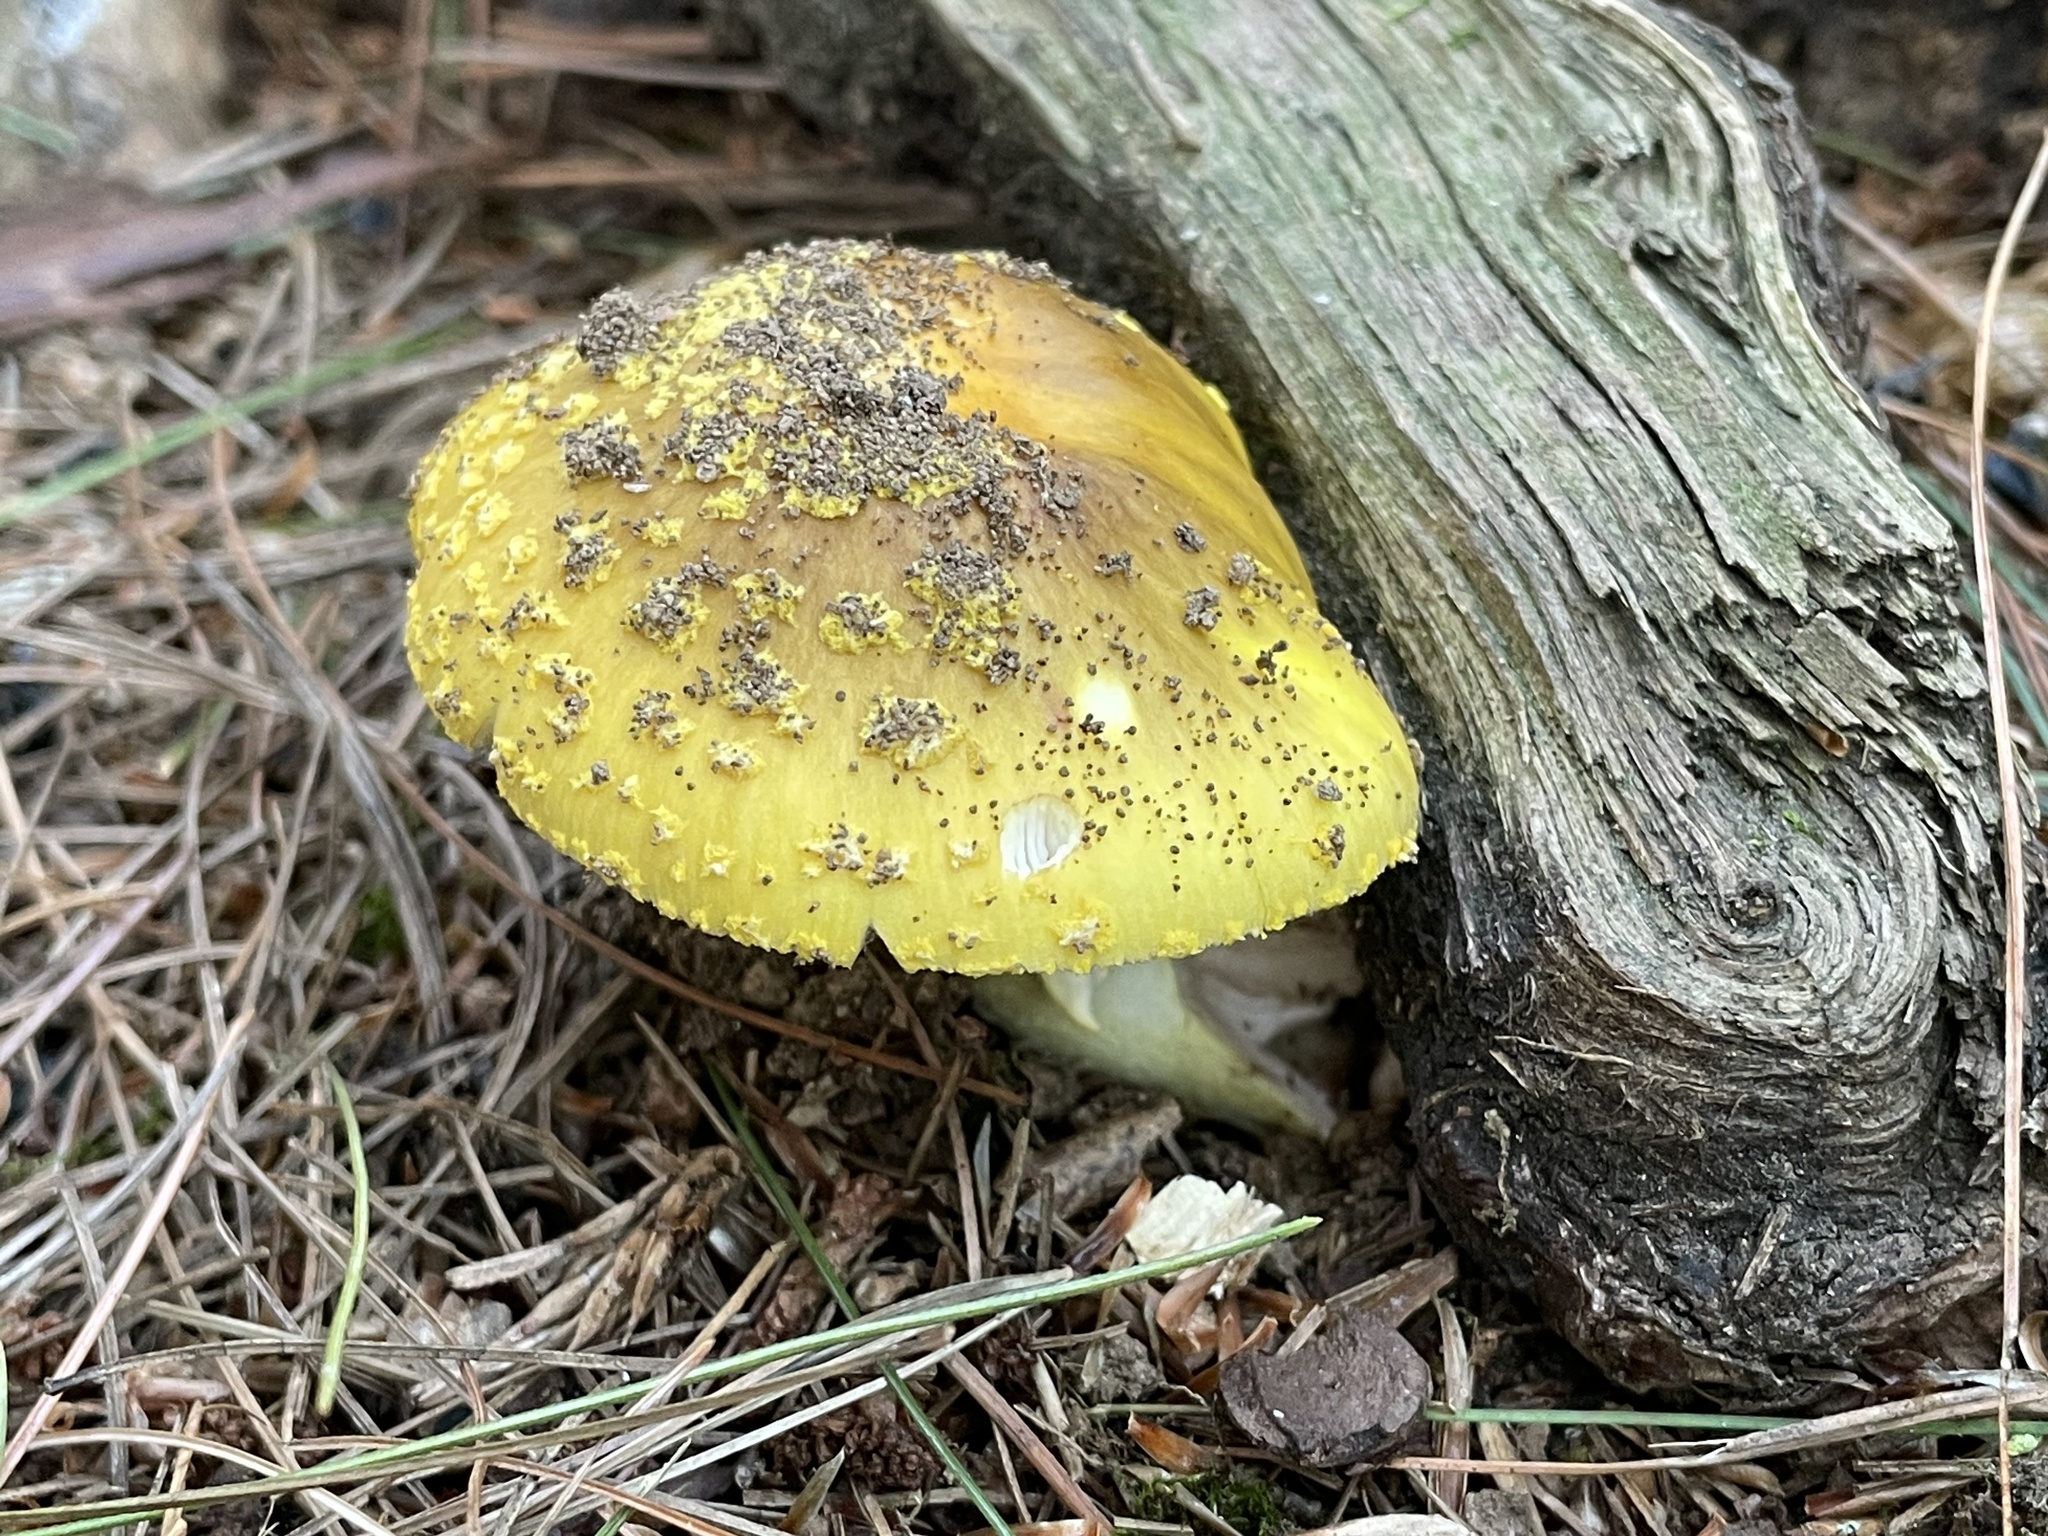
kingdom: Fungi
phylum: Basidiomycota
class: Agaricomycetes
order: Agaricales
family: Amanitaceae
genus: Amanita
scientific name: Amanita flavorubens
